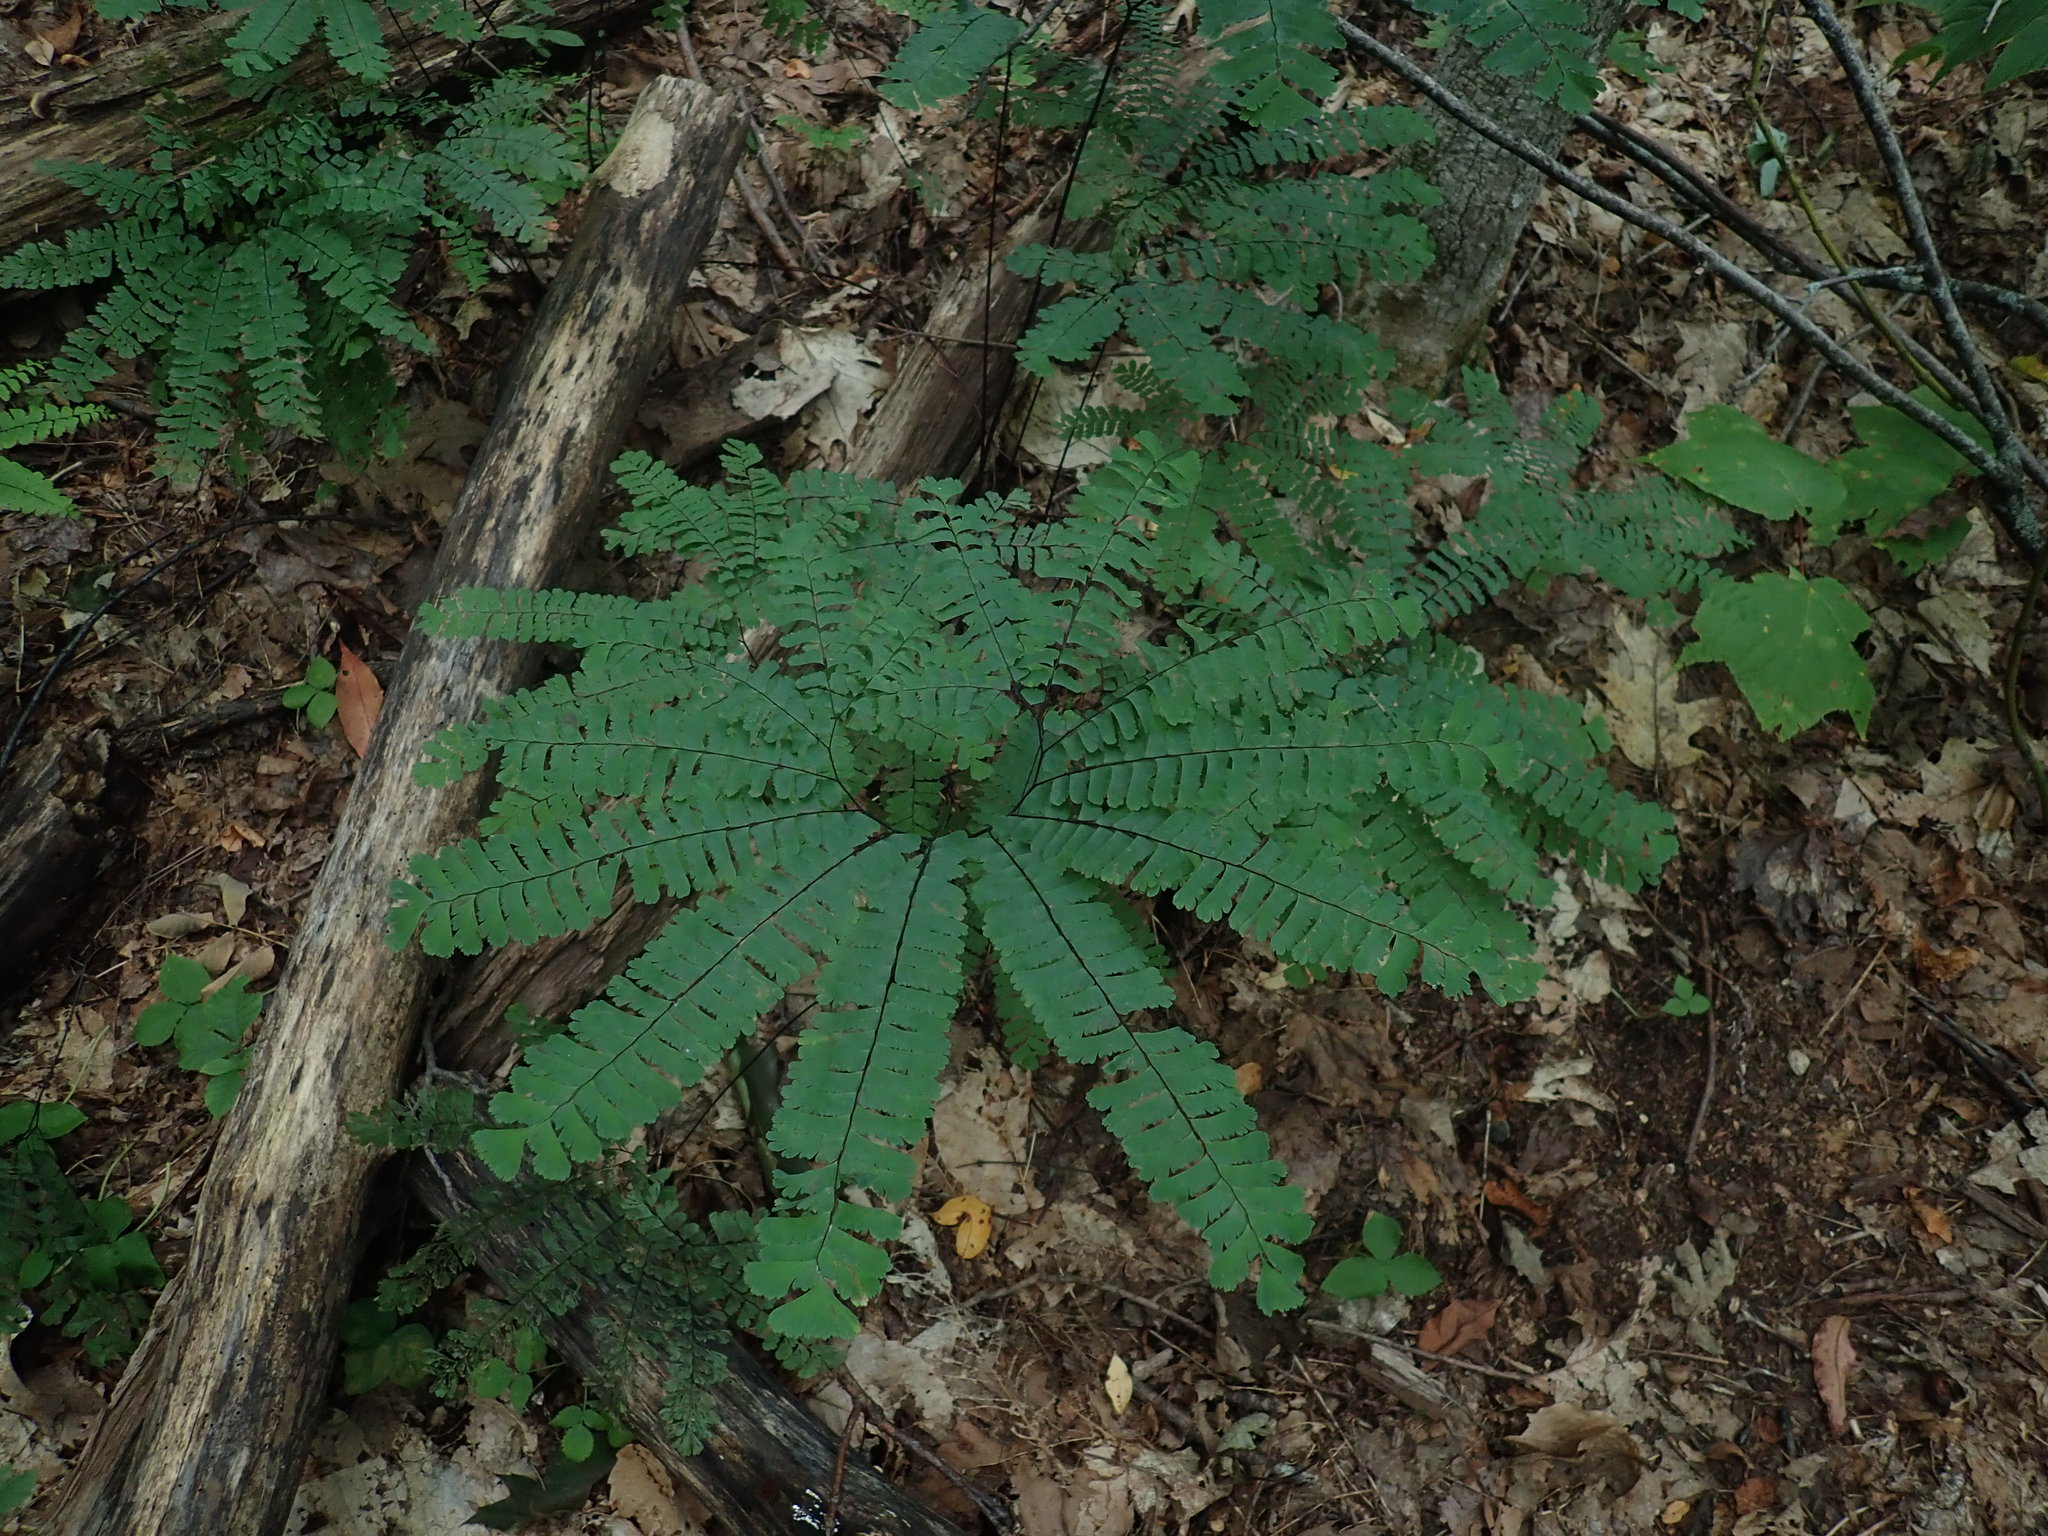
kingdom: Plantae
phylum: Tracheophyta
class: Polypodiopsida
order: Polypodiales
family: Pteridaceae
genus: Adiantum
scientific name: Adiantum pedatum
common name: Five-finger fern
